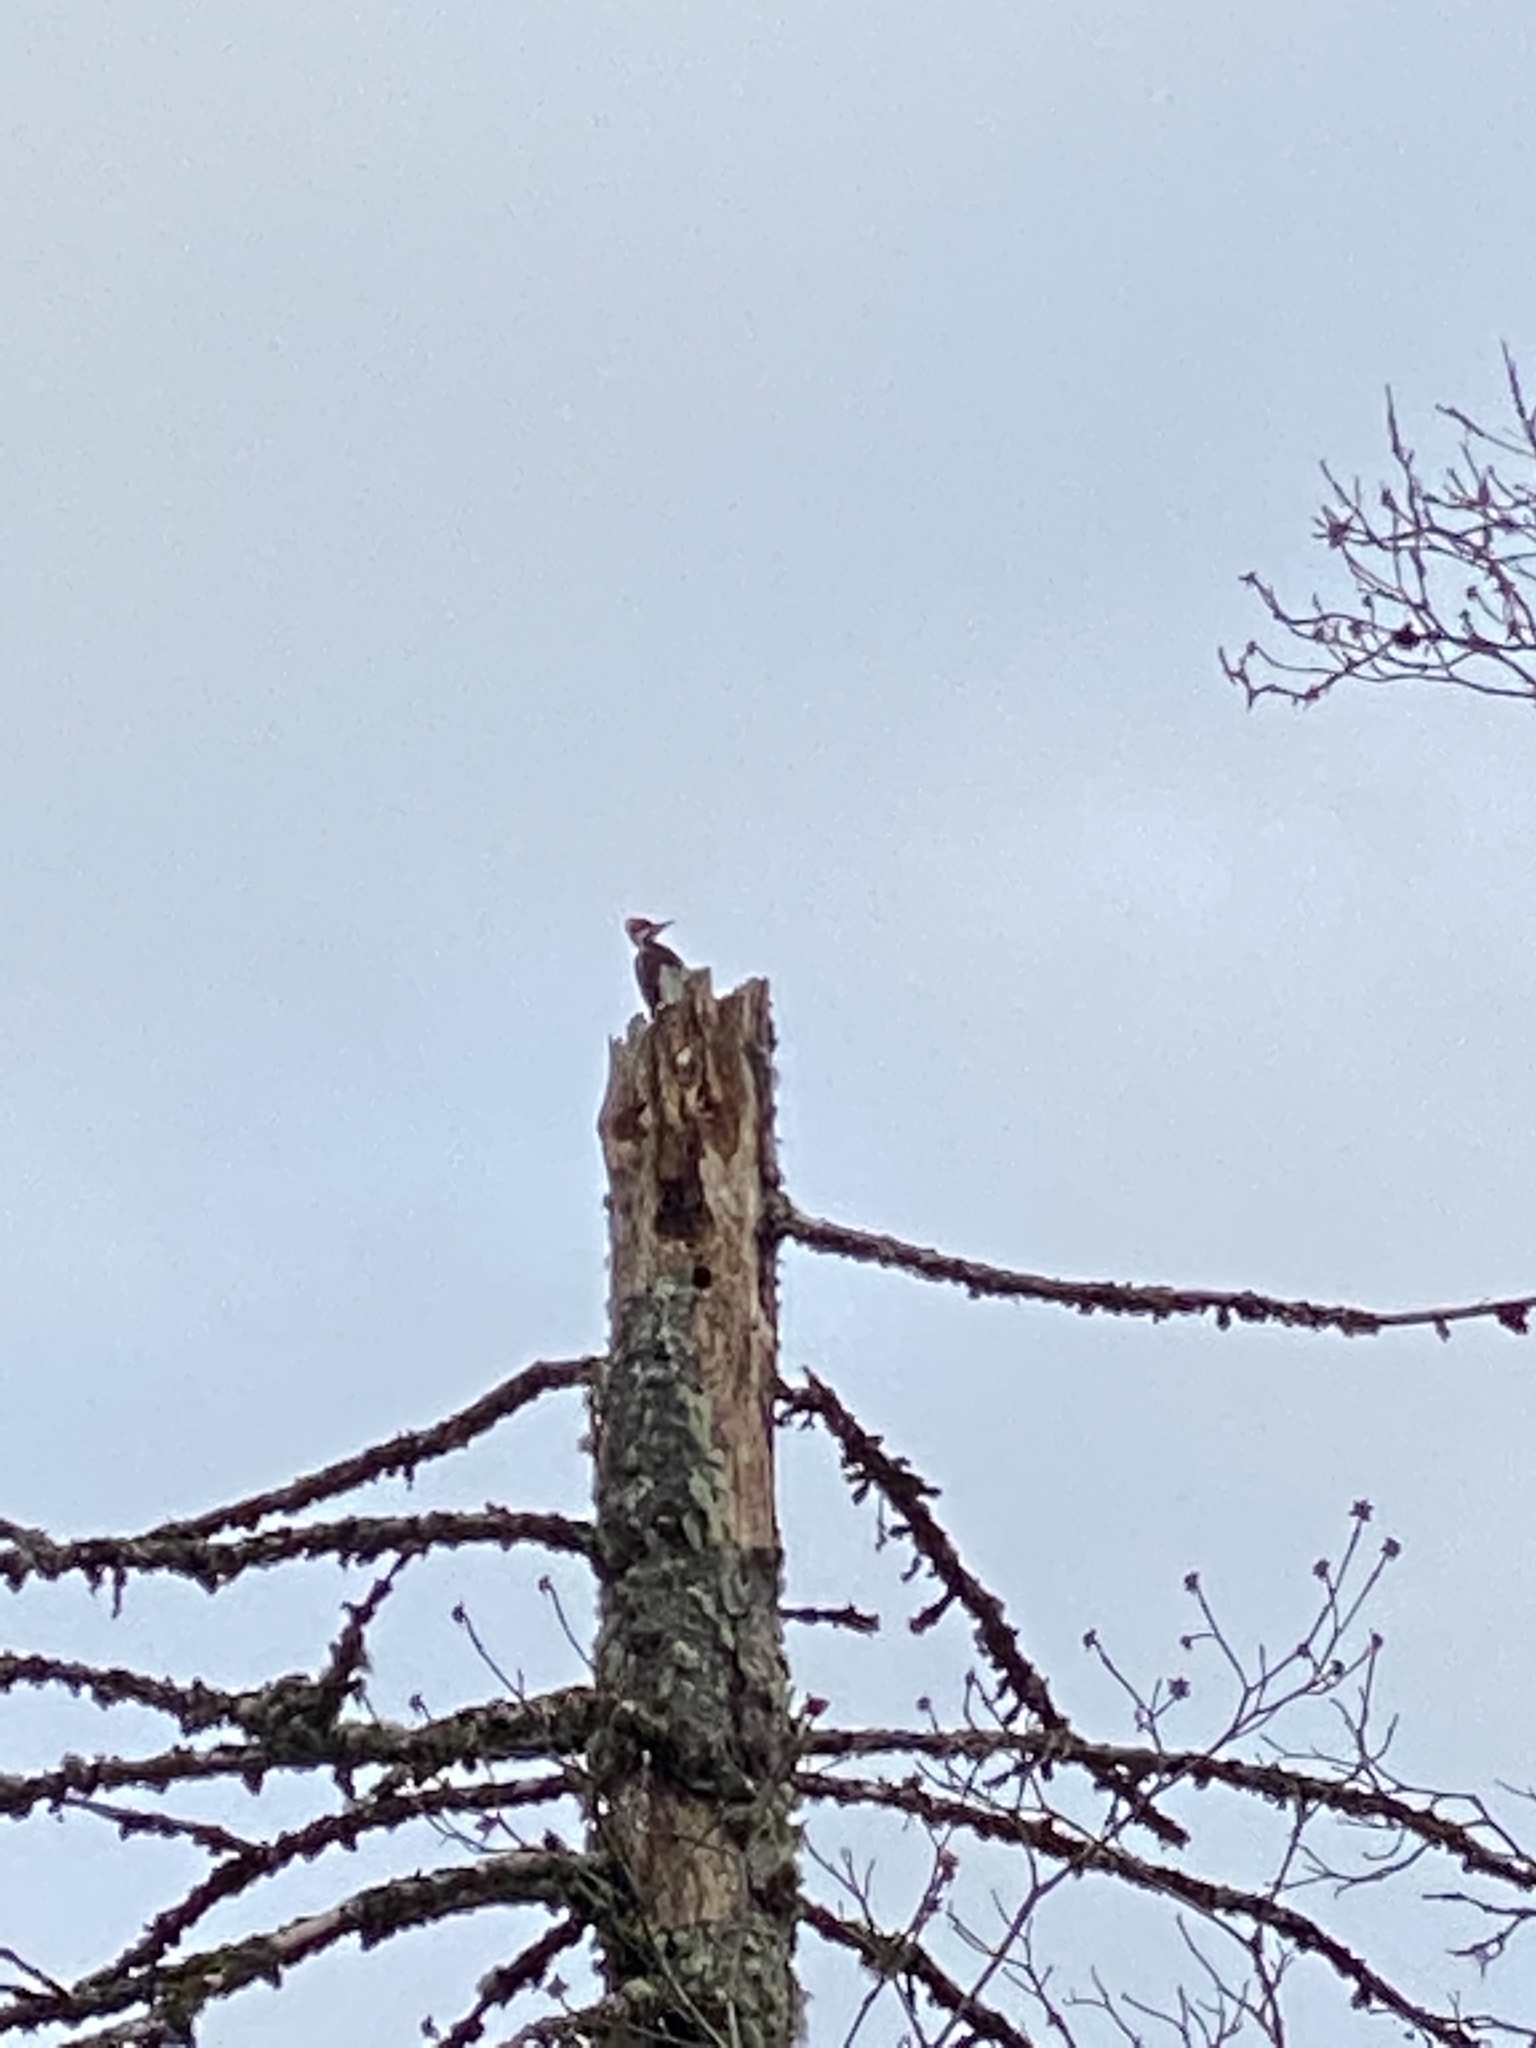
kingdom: Animalia
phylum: Chordata
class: Aves
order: Piciformes
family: Picidae
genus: Dryocopus
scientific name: Dryocopus pileatus
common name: Pileated woodpecker
